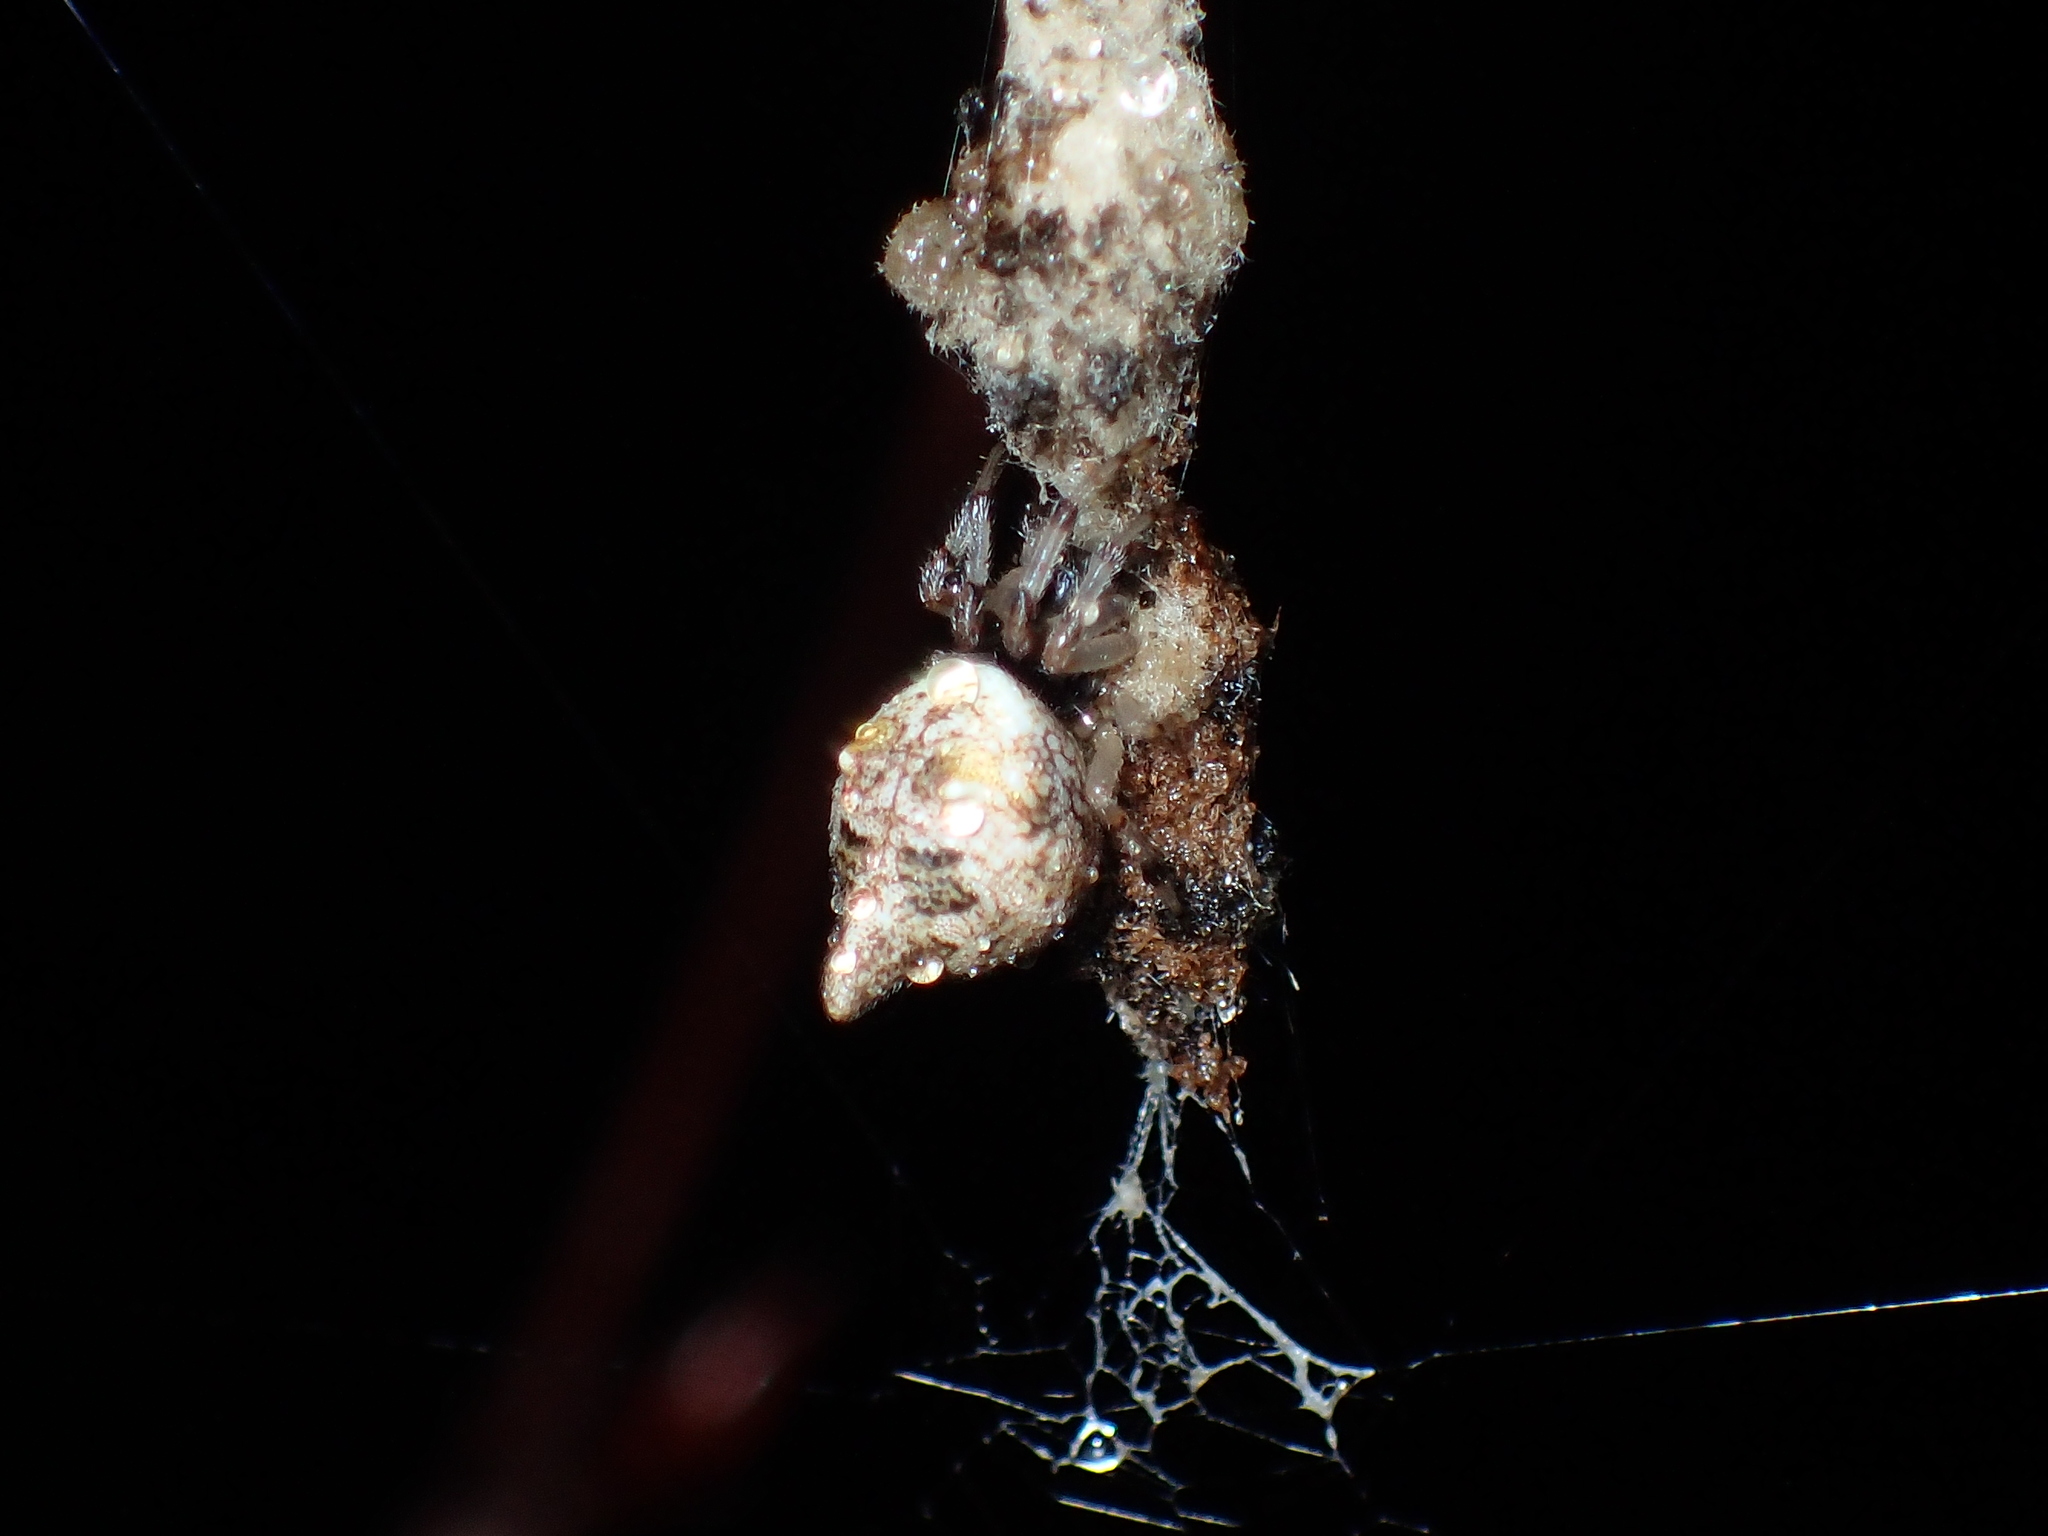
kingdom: Animalia
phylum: Arthropoda
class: Arachnida
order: Araneae
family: Araneidae
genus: Cyclosa
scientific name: Cyclosa turbinata
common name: Orb weavers
